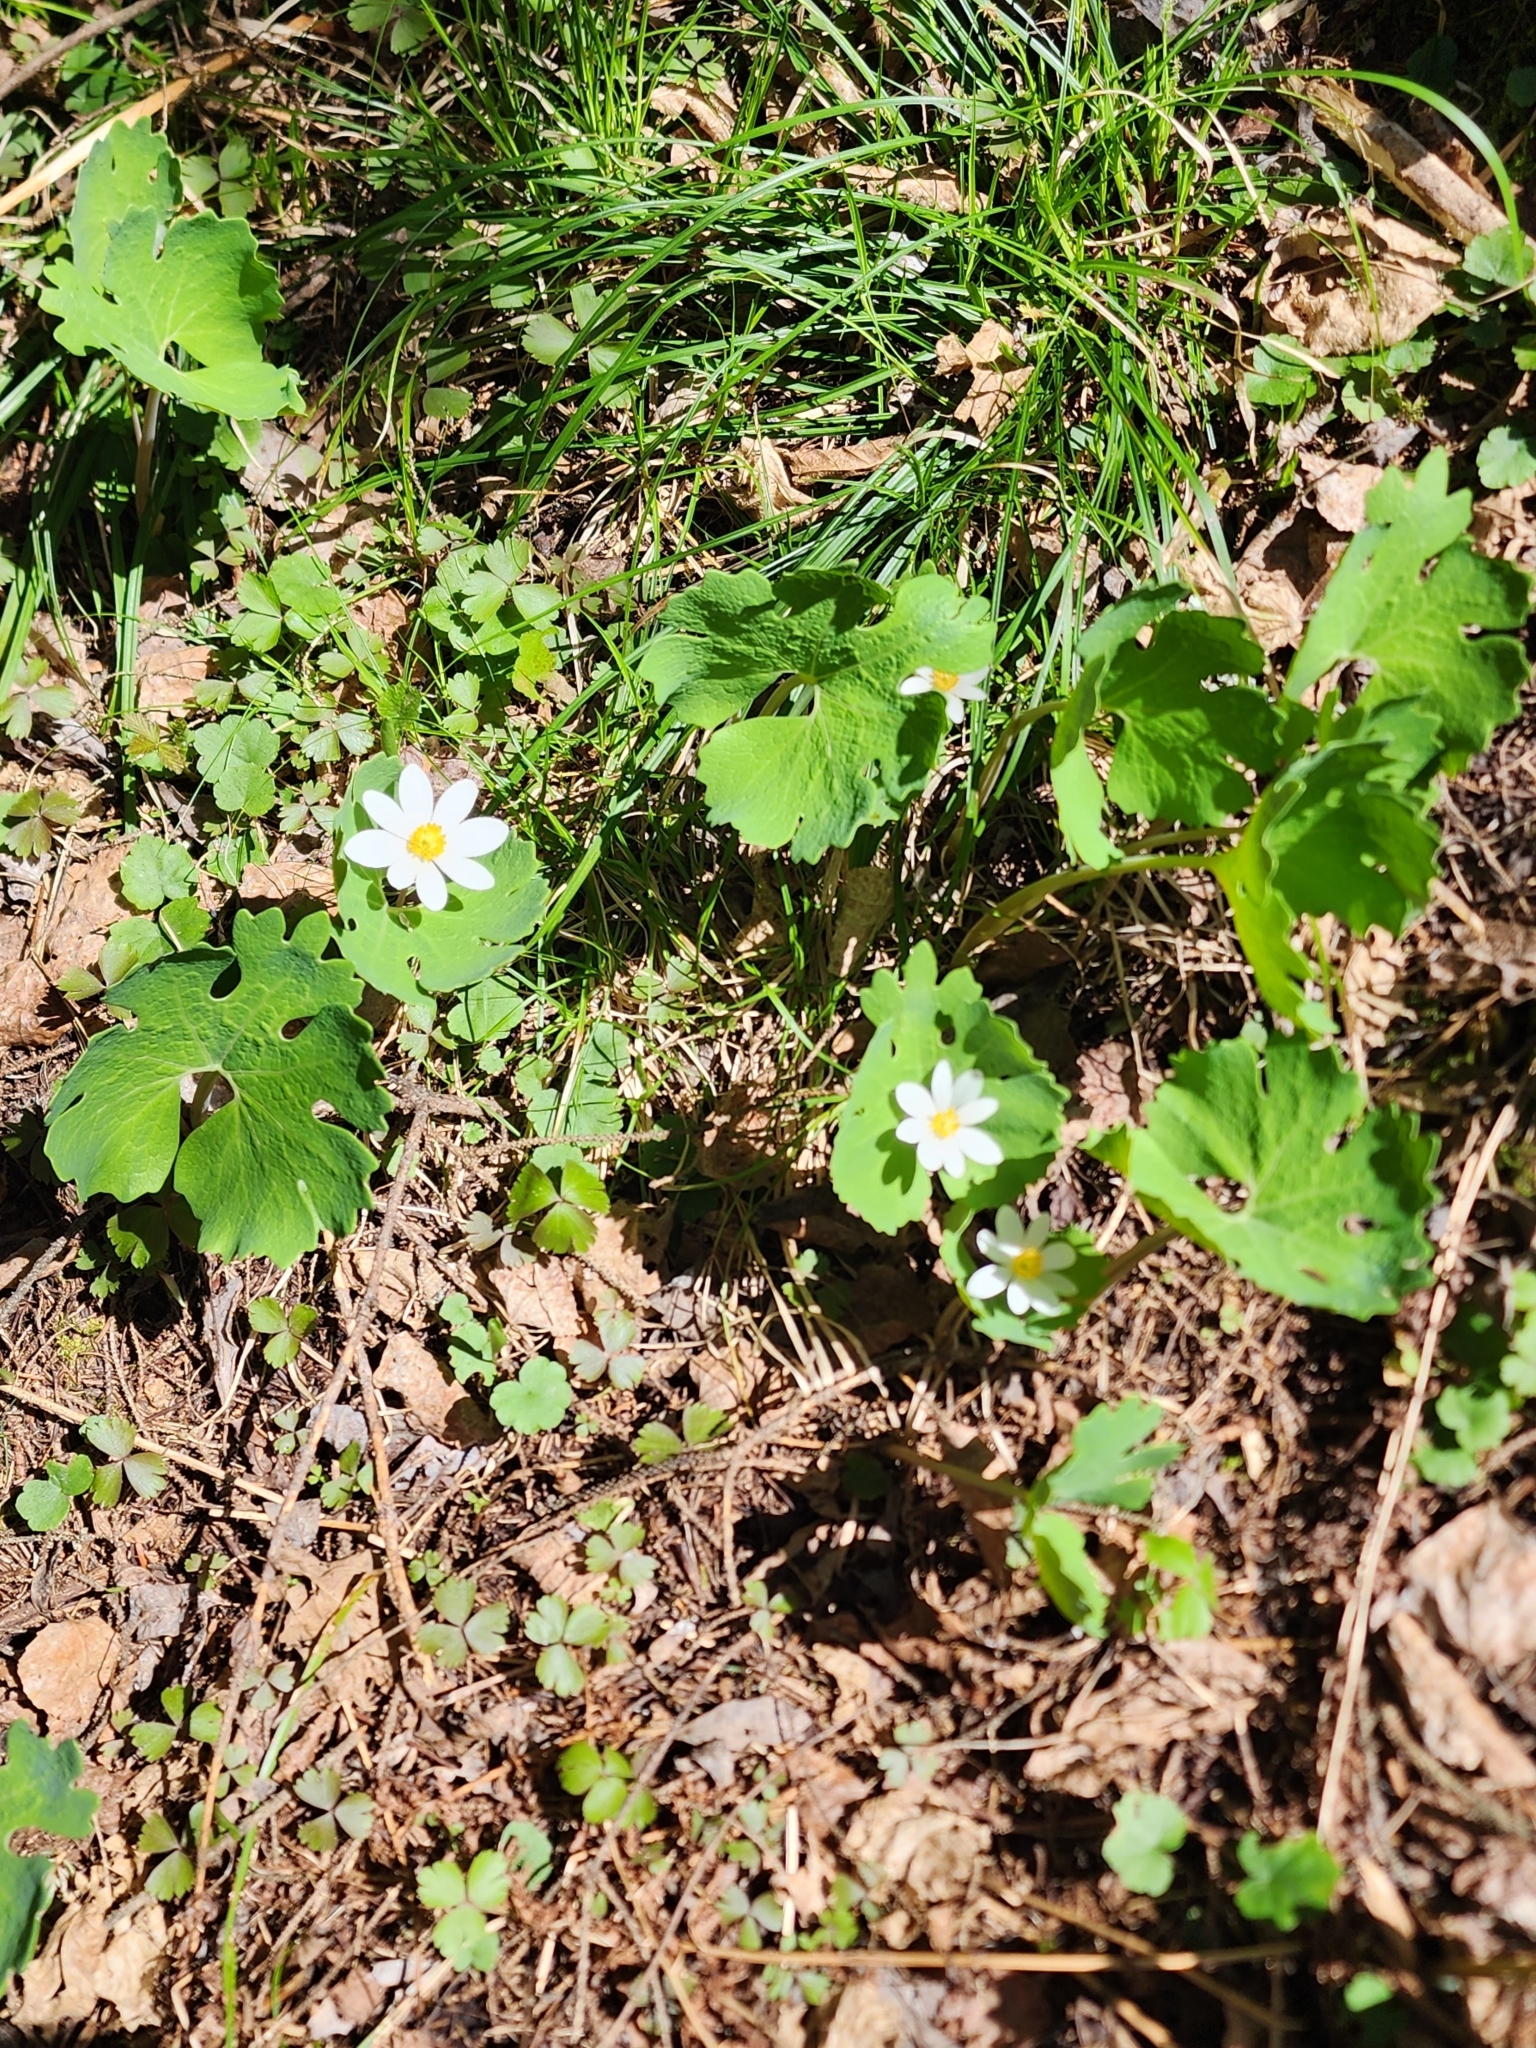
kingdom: Plantae
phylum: Tracheophyta
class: Magnoliopsida
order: Ranunculales
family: Papaveraceae
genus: Sanguinaria
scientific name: Sanguinaria canadensis
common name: Bloodroot
